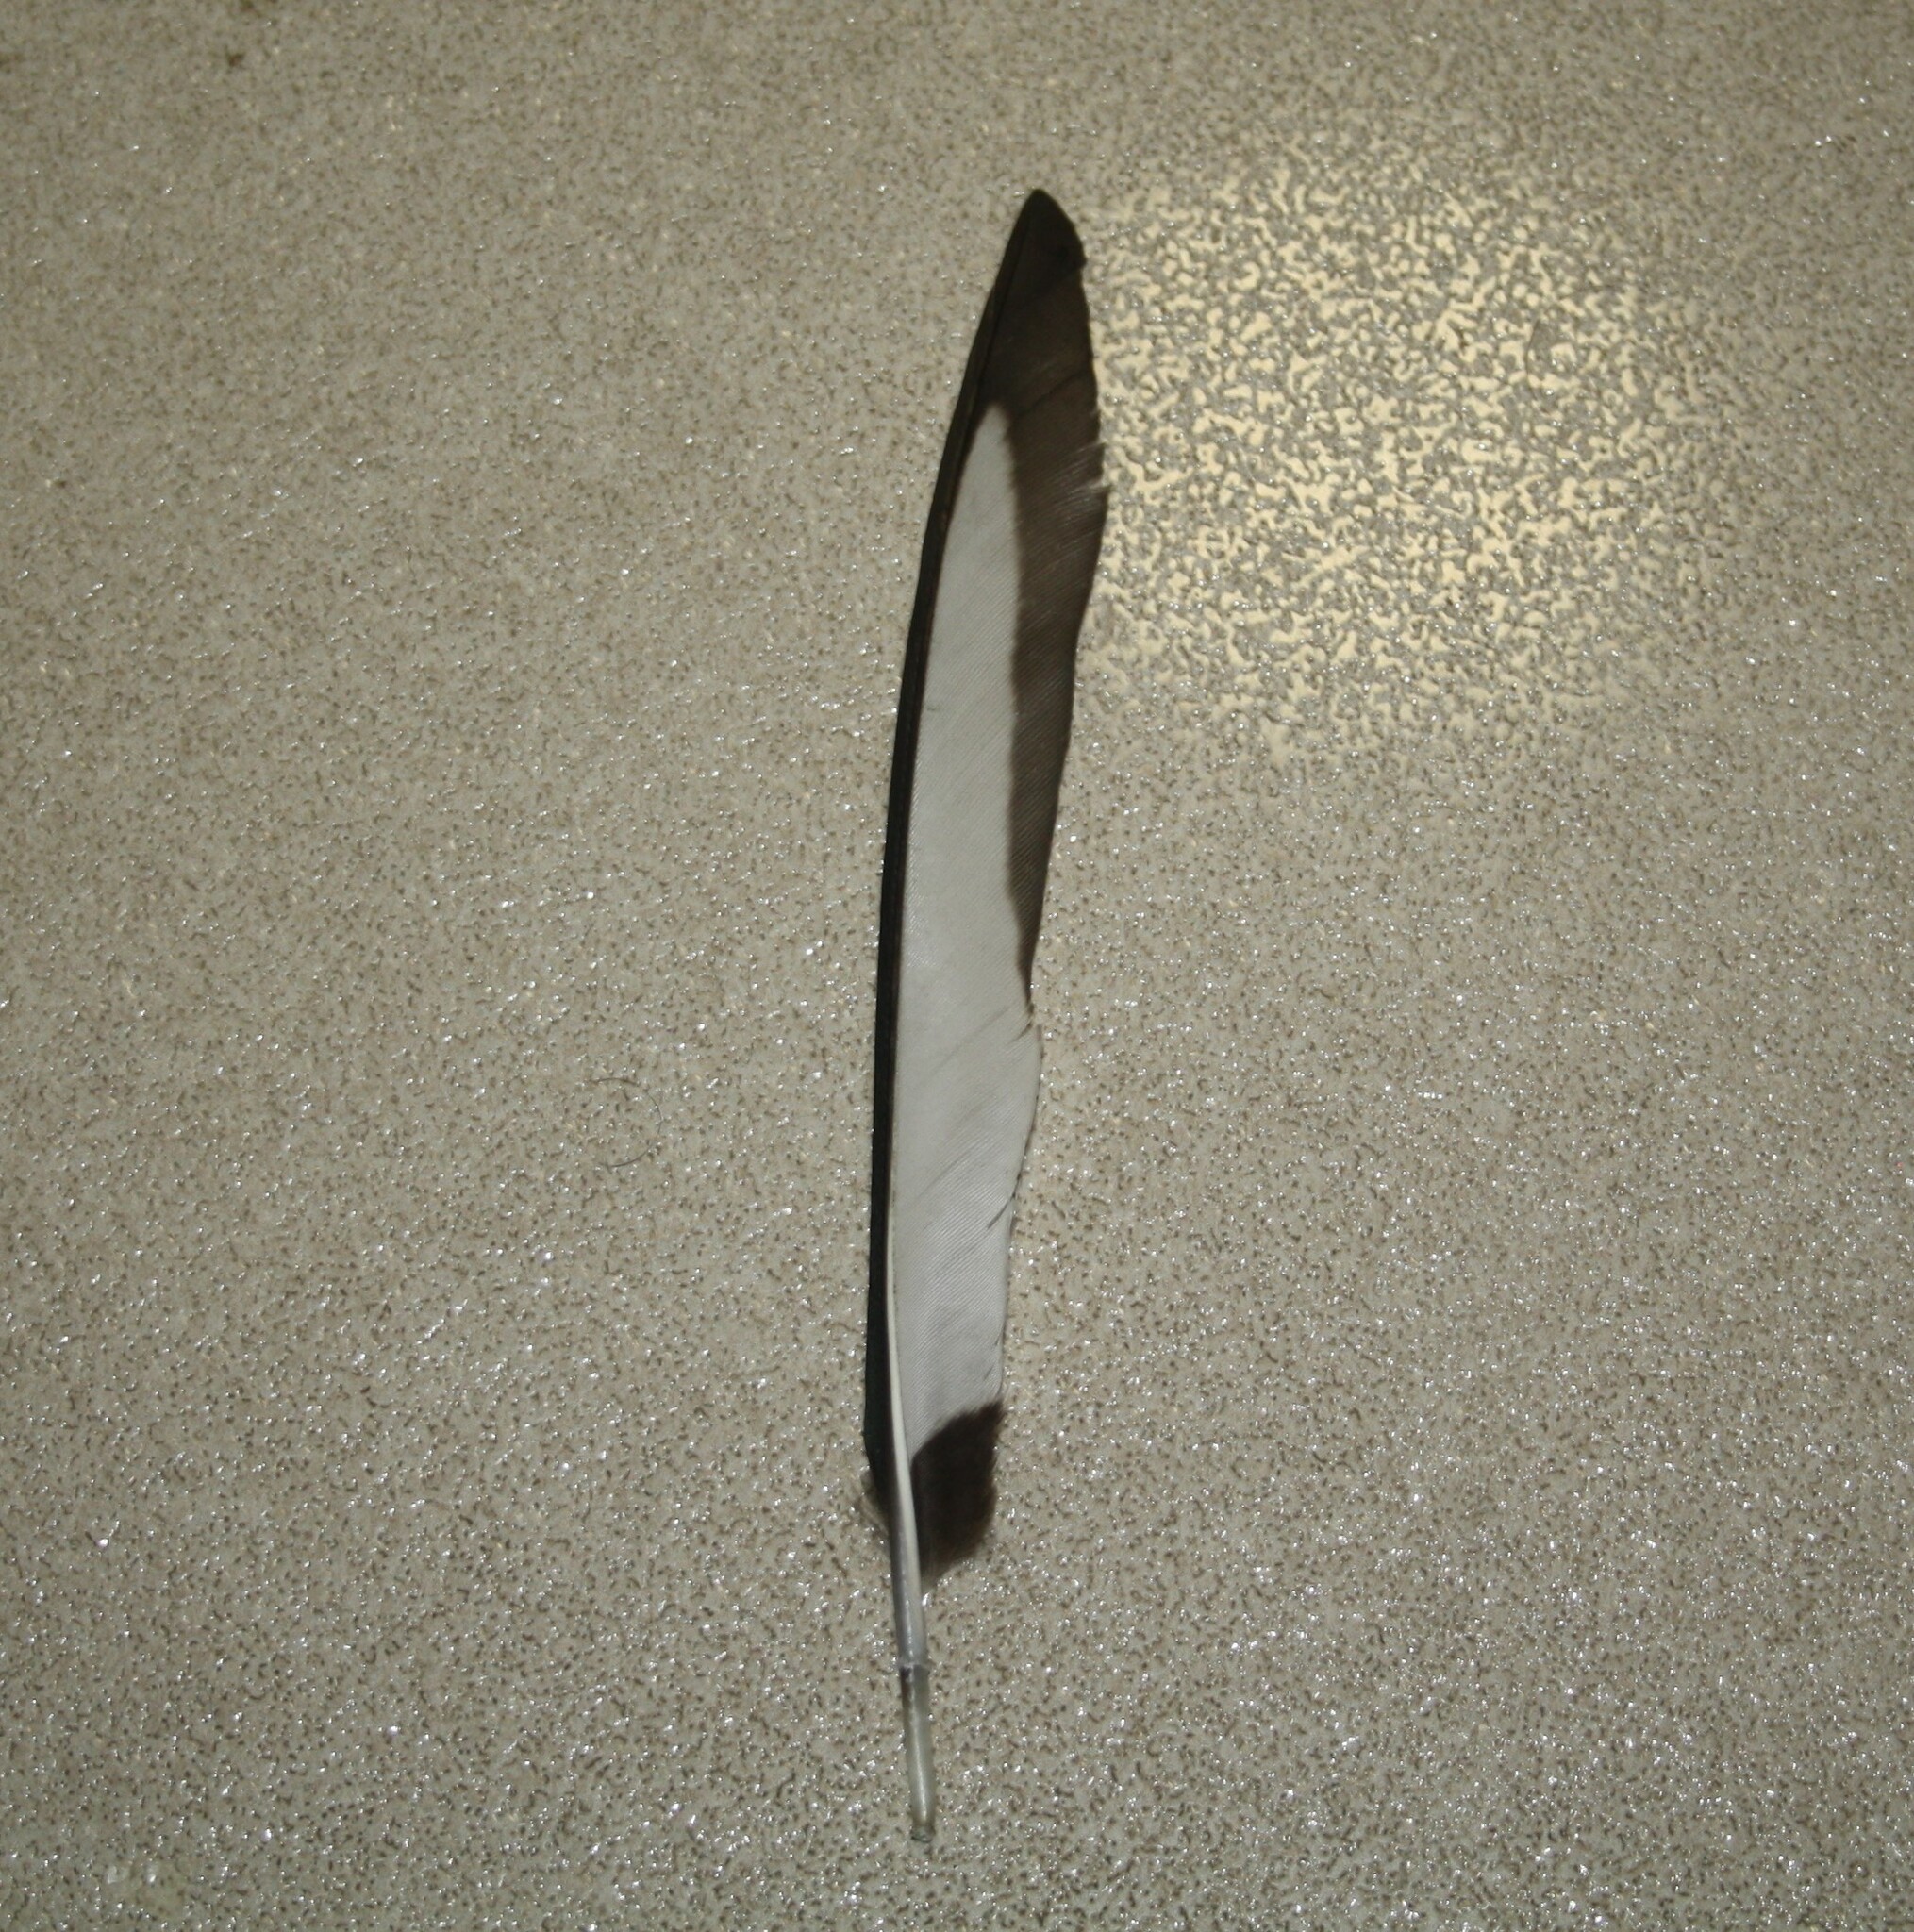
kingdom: Animalia
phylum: Chordata
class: Aves
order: Passeriformes
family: Corvidae
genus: Pica
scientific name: Pica pica
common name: Eurasian magpie
